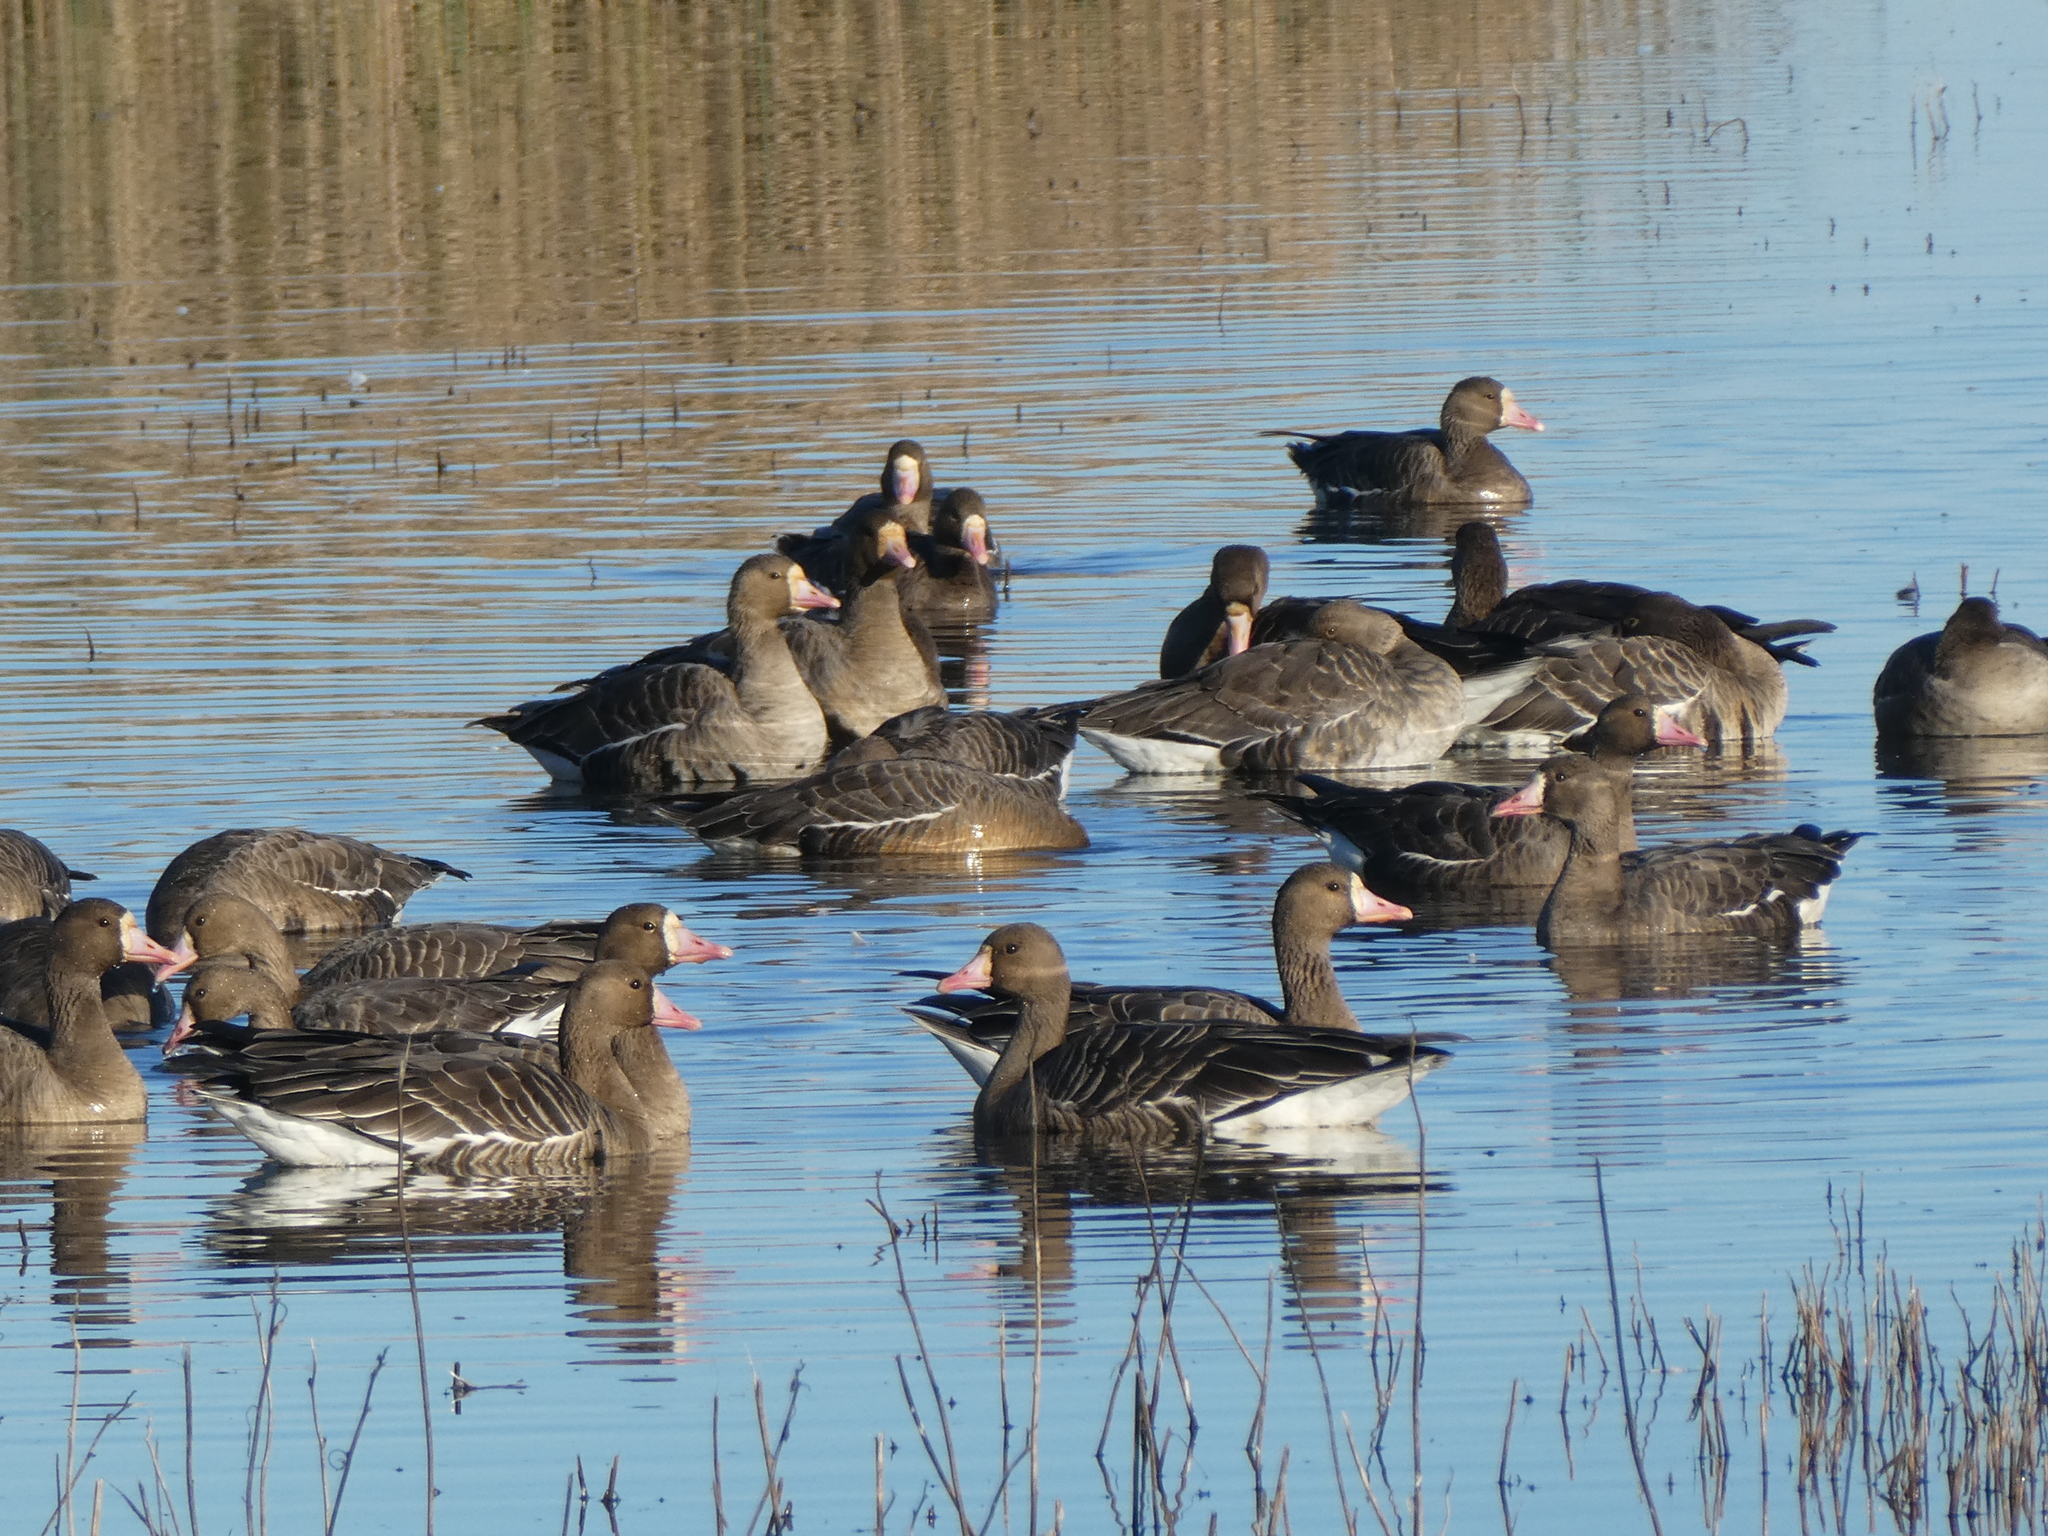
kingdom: Animalia
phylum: Chordata
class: Aves
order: Anseriformes
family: Anatidae
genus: Anser
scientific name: Anser albifrons
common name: Greater white-fronted goose
